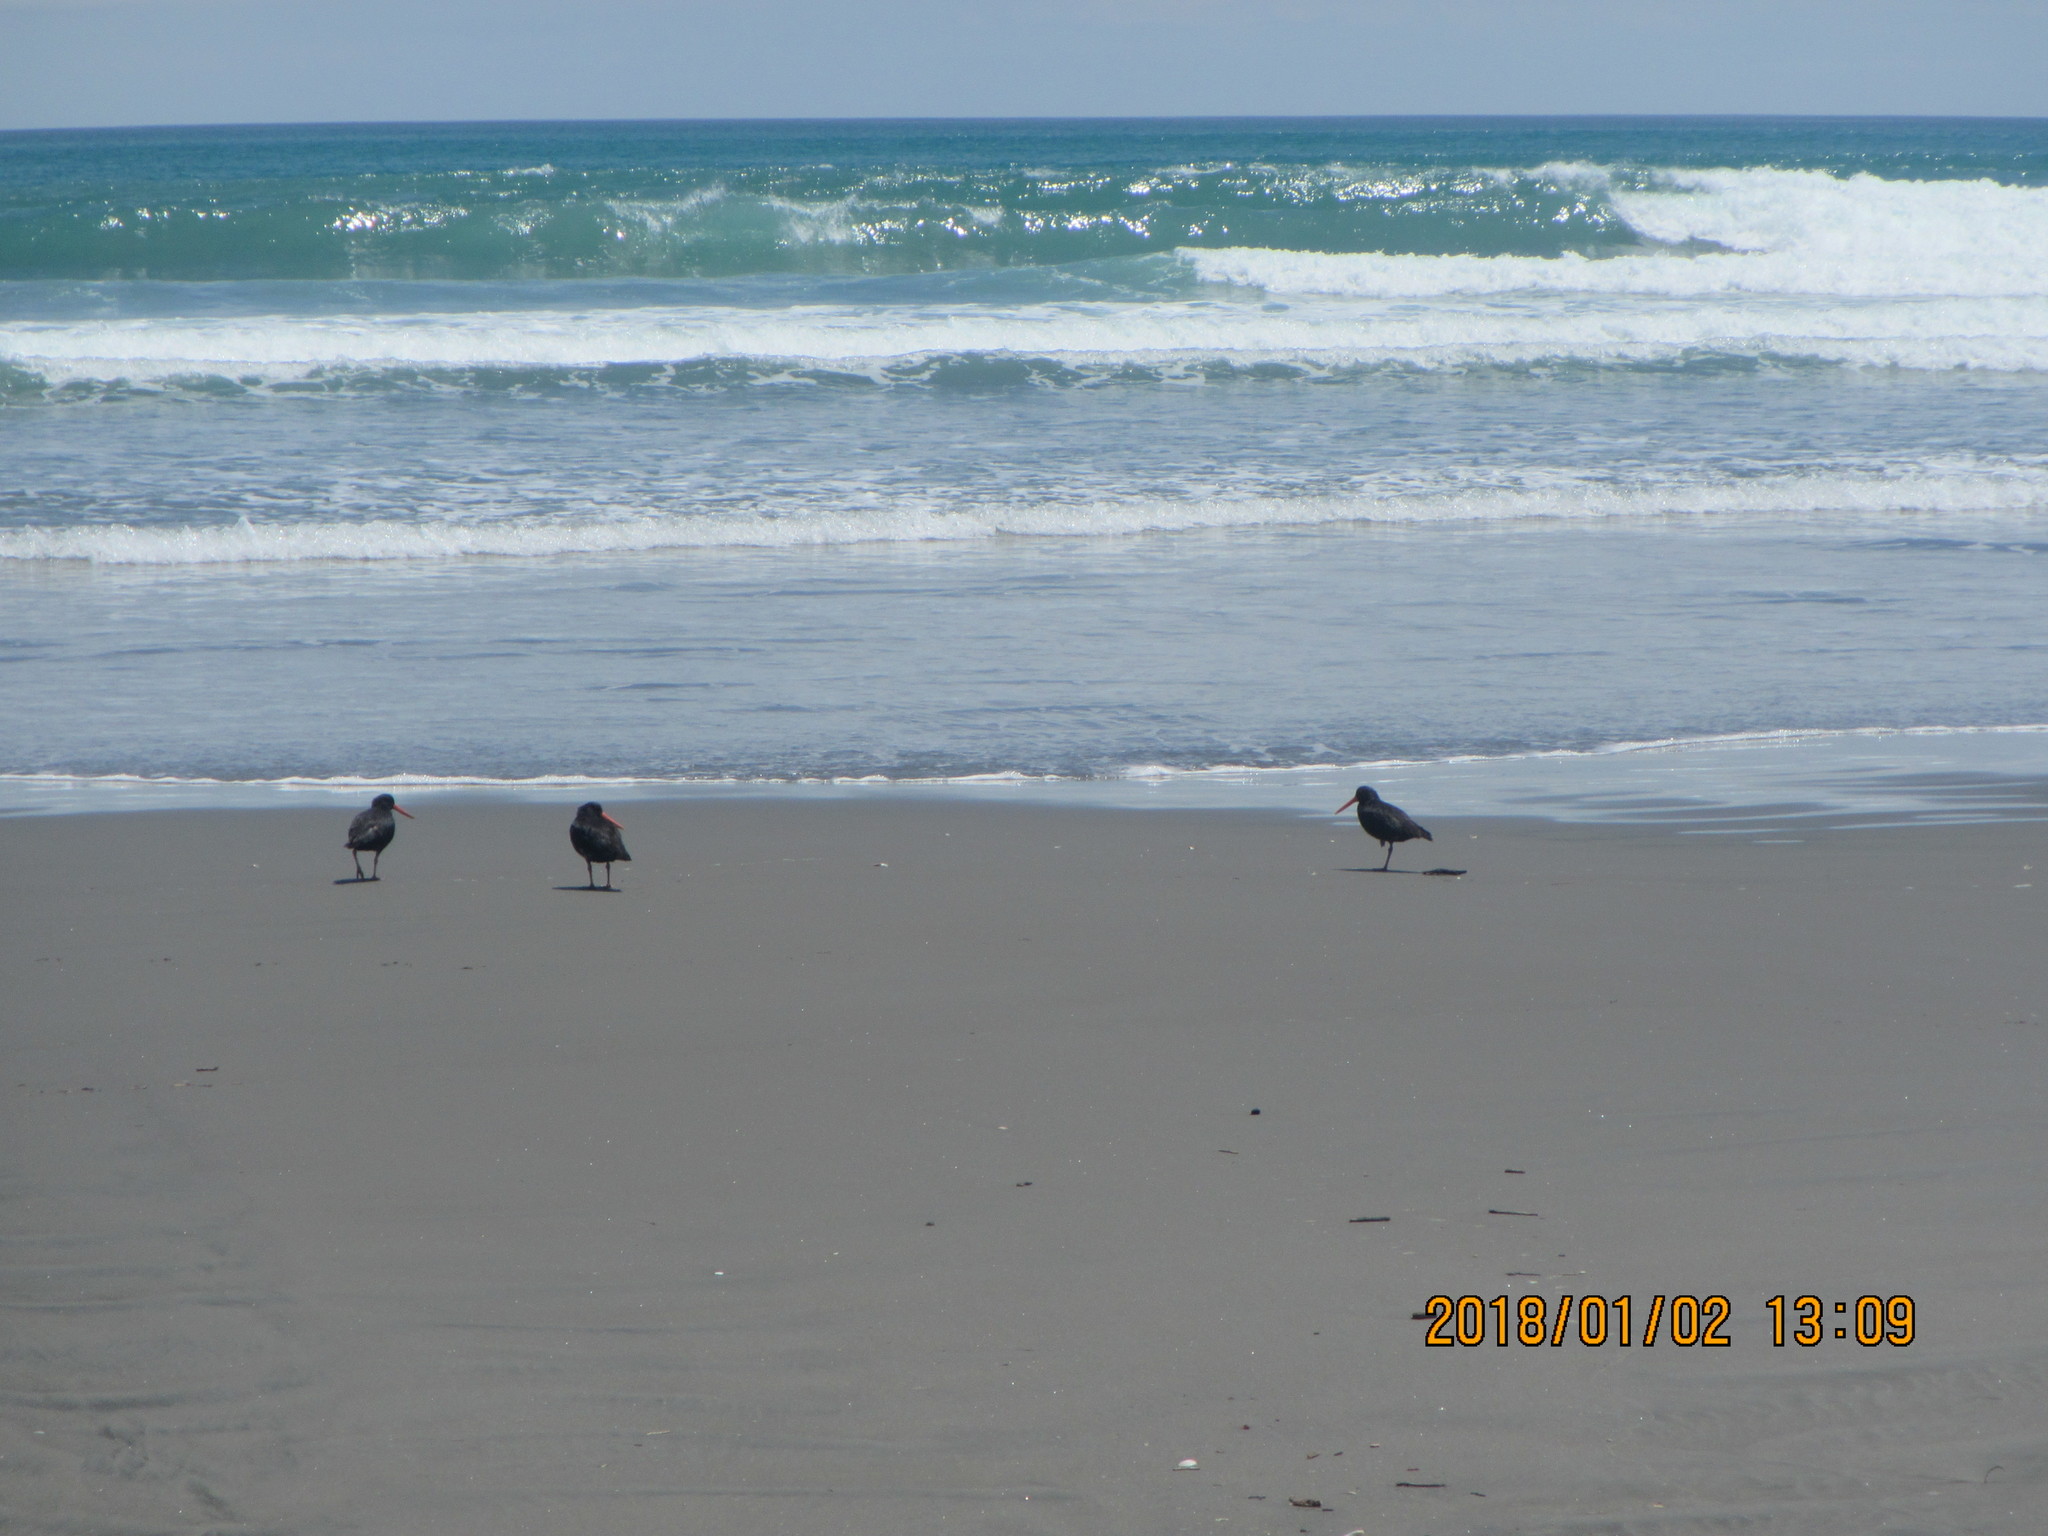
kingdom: Animalia
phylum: Chordata
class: Aves
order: Charadriiformes
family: Haematopodidae
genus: Haematopus
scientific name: Haematopus unicolor
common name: Variable oystercatcher
